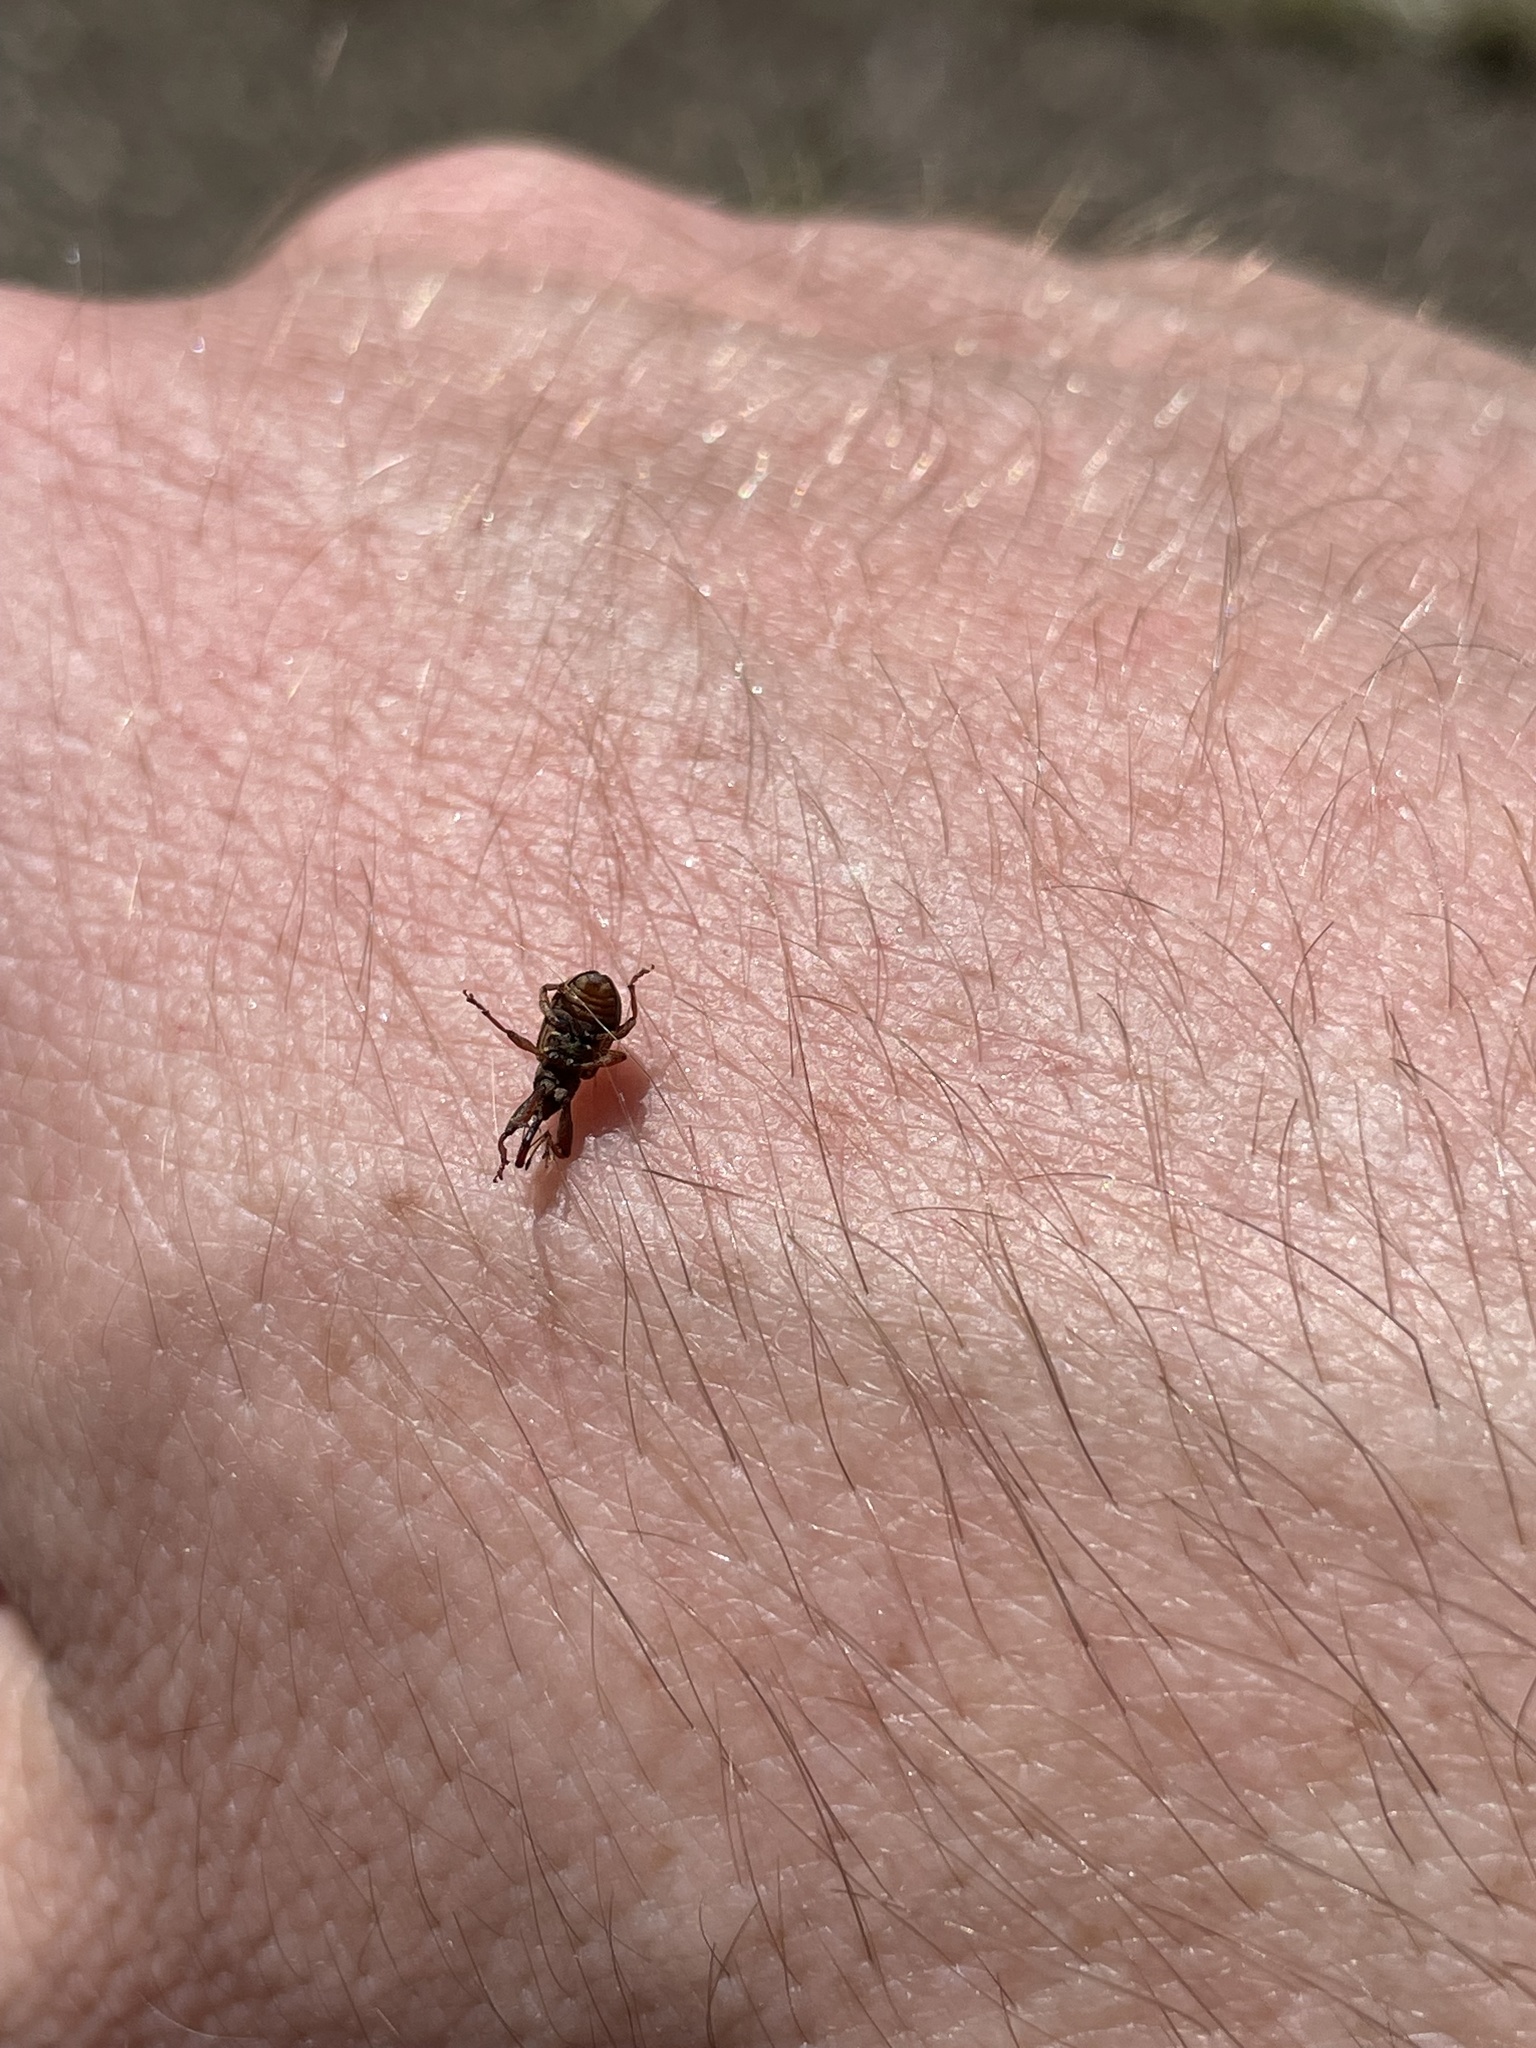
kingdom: Animalia
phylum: Arthropoda
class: Insecta
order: Coleoptera
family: Curculionidae
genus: Anthonomus
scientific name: Anthonomus rectirostris
